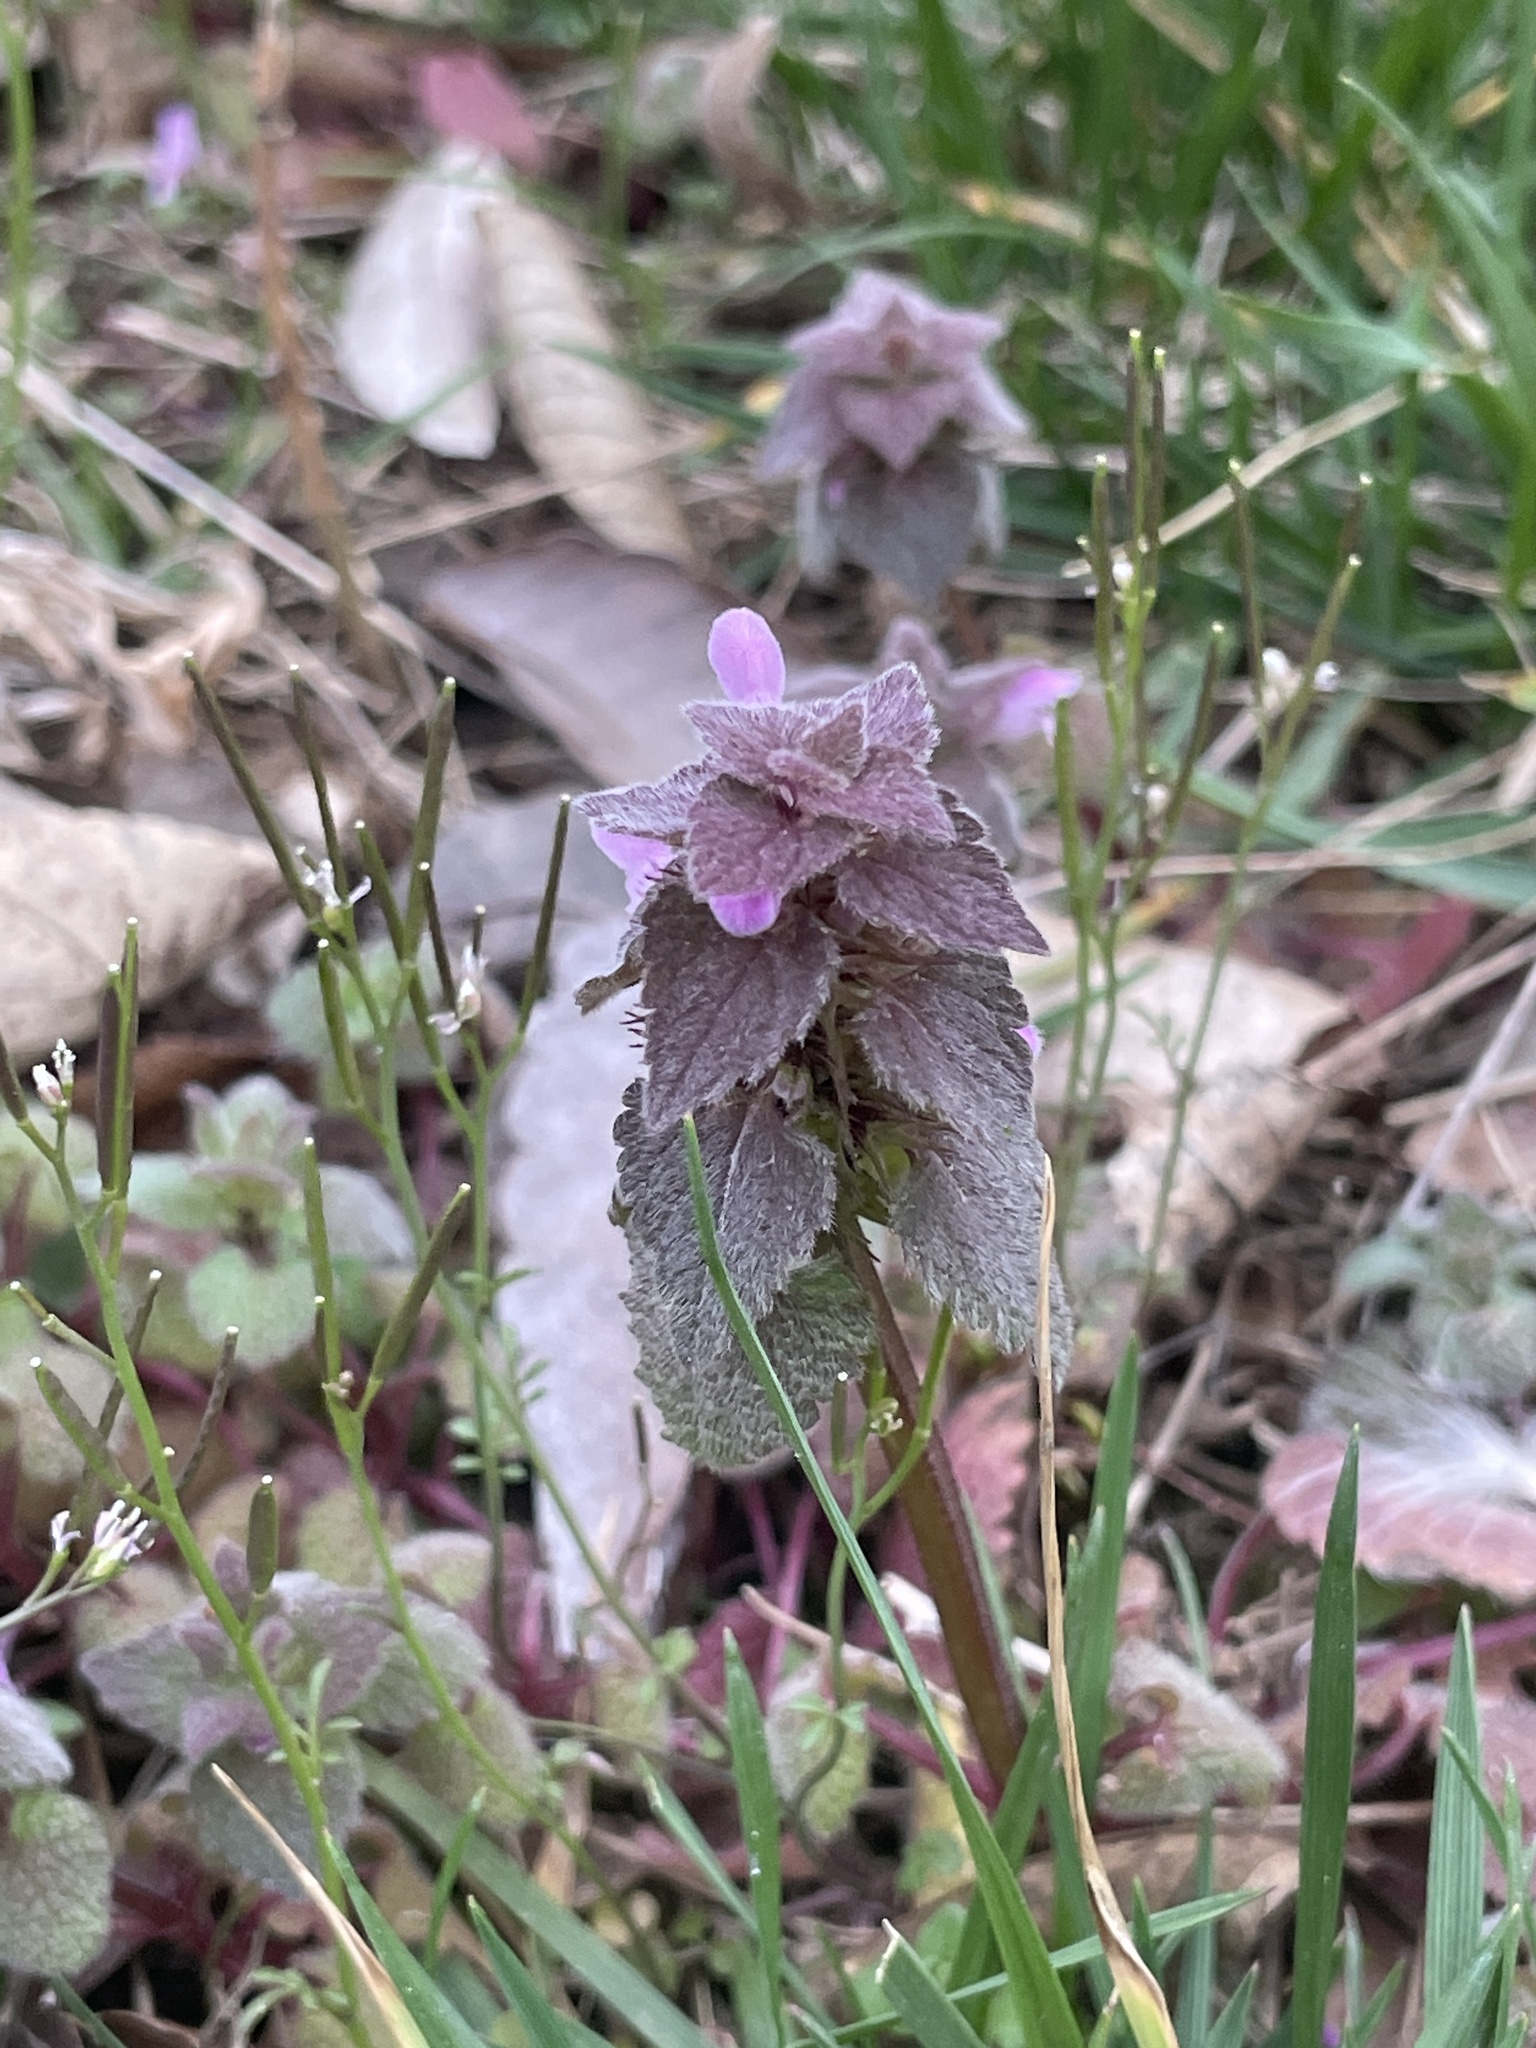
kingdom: Plantae
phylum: Tracheophyta
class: Magnoliopsida
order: Lamiales
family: Lamiaceae
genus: Lamium
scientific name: Lamium purpureum
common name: Red dead-nettle
